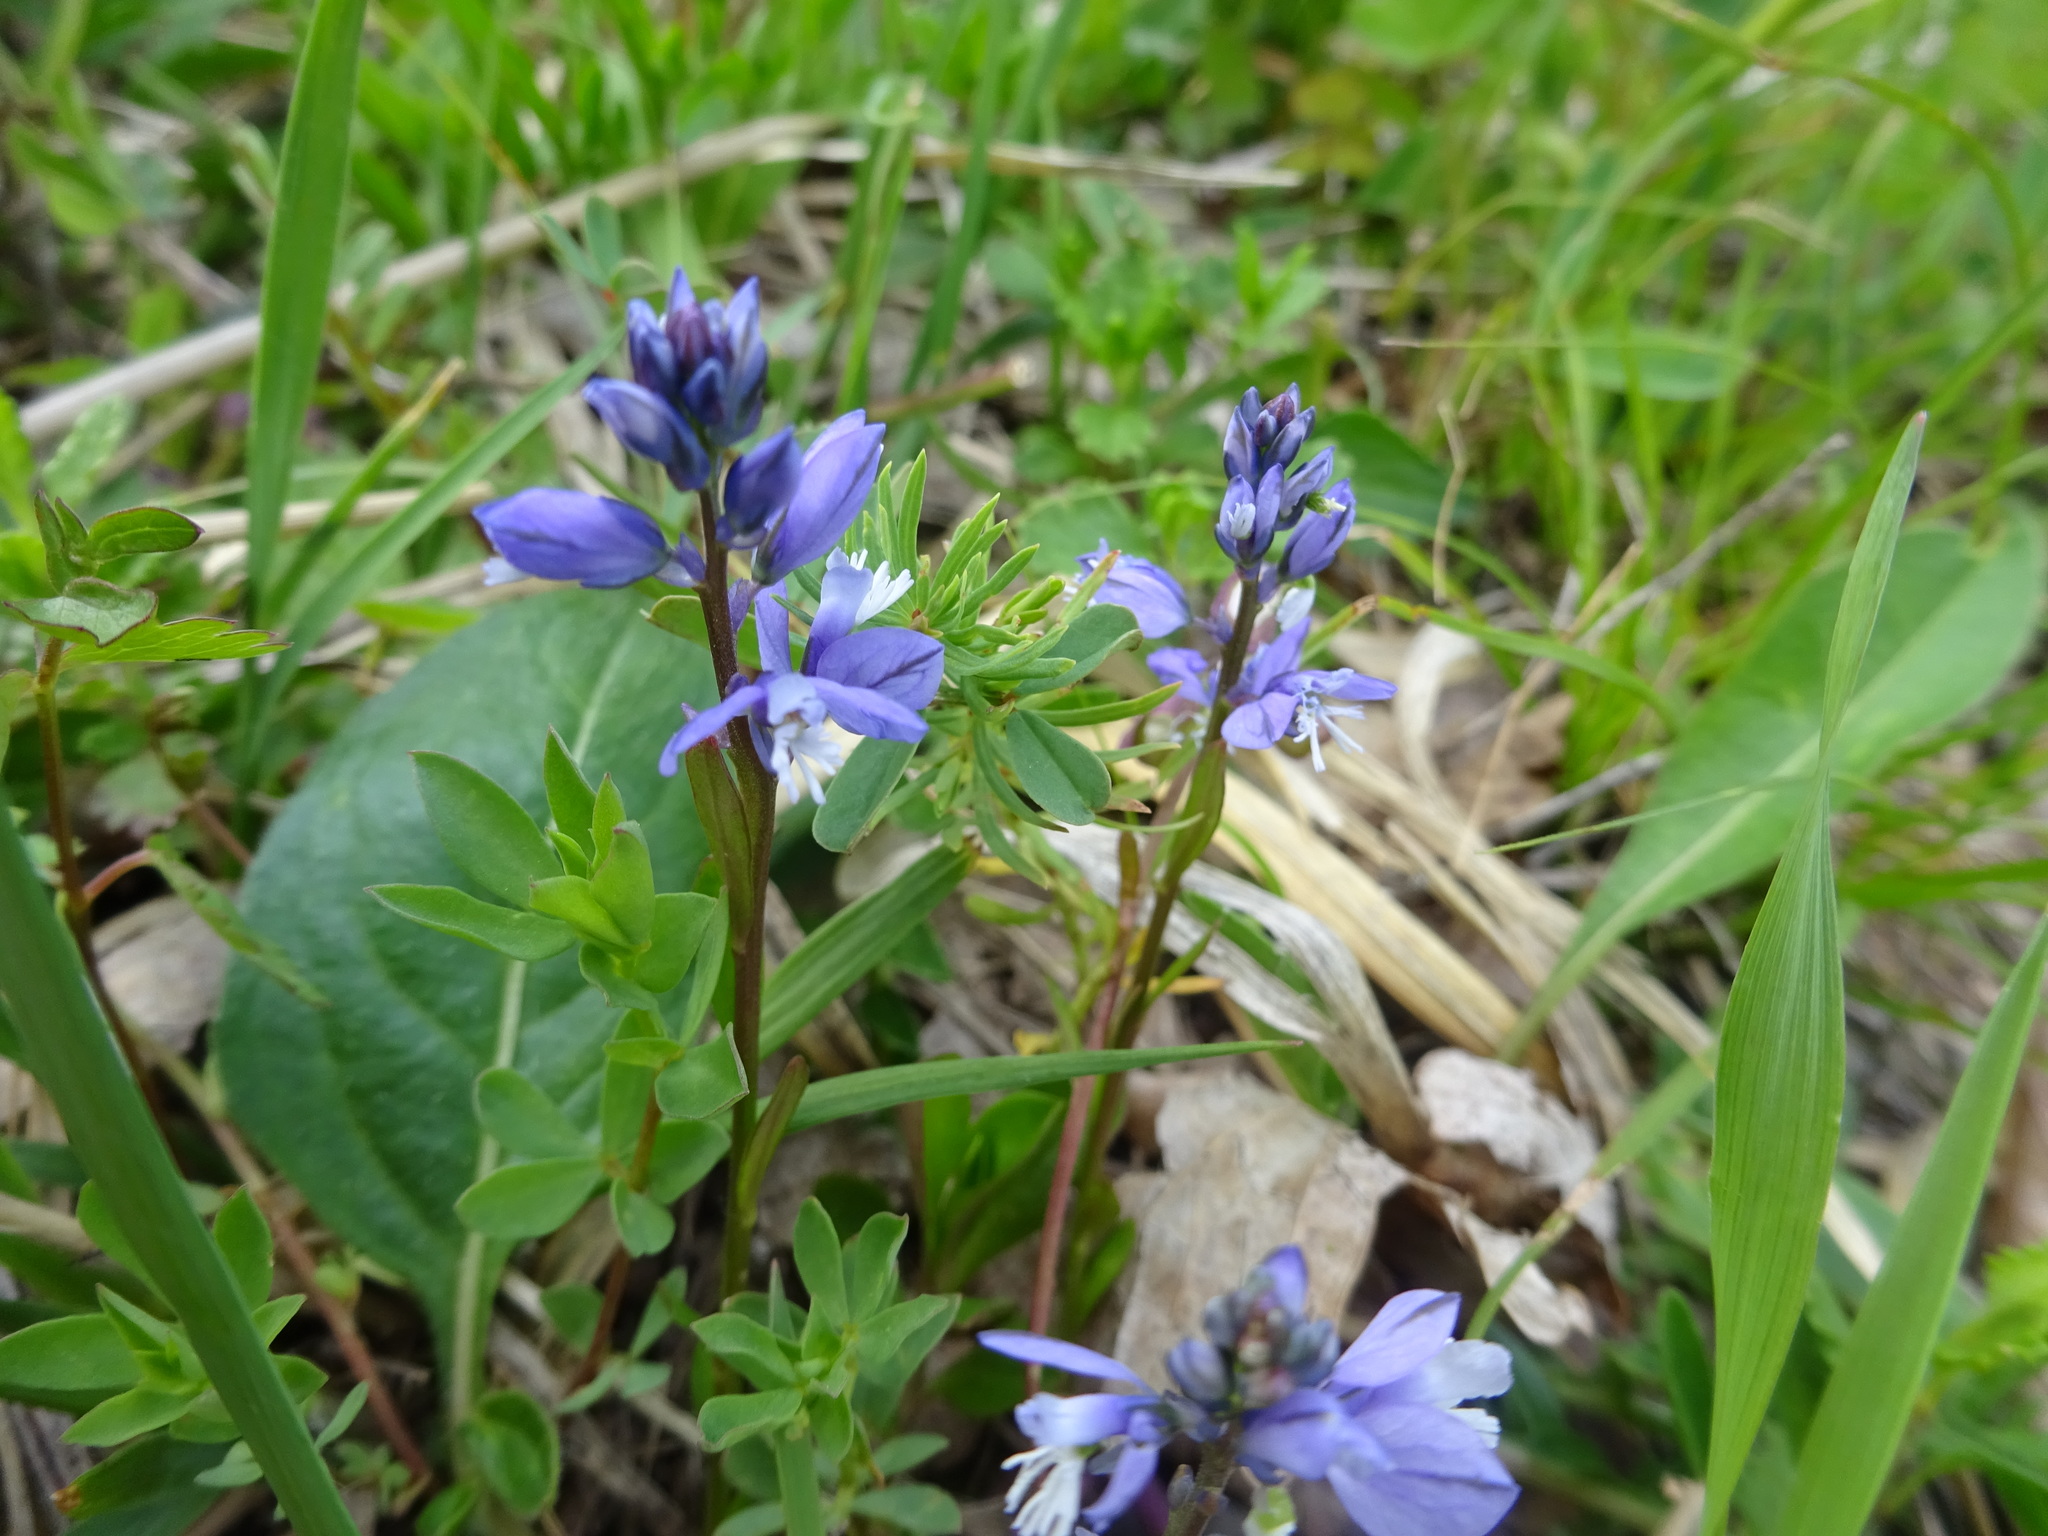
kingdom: Plantae
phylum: Tracheophyta
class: Magnoliopsida
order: Fabales
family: Polygalaceae
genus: Polygala
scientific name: Polygala vulgaris
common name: Common milkwort
